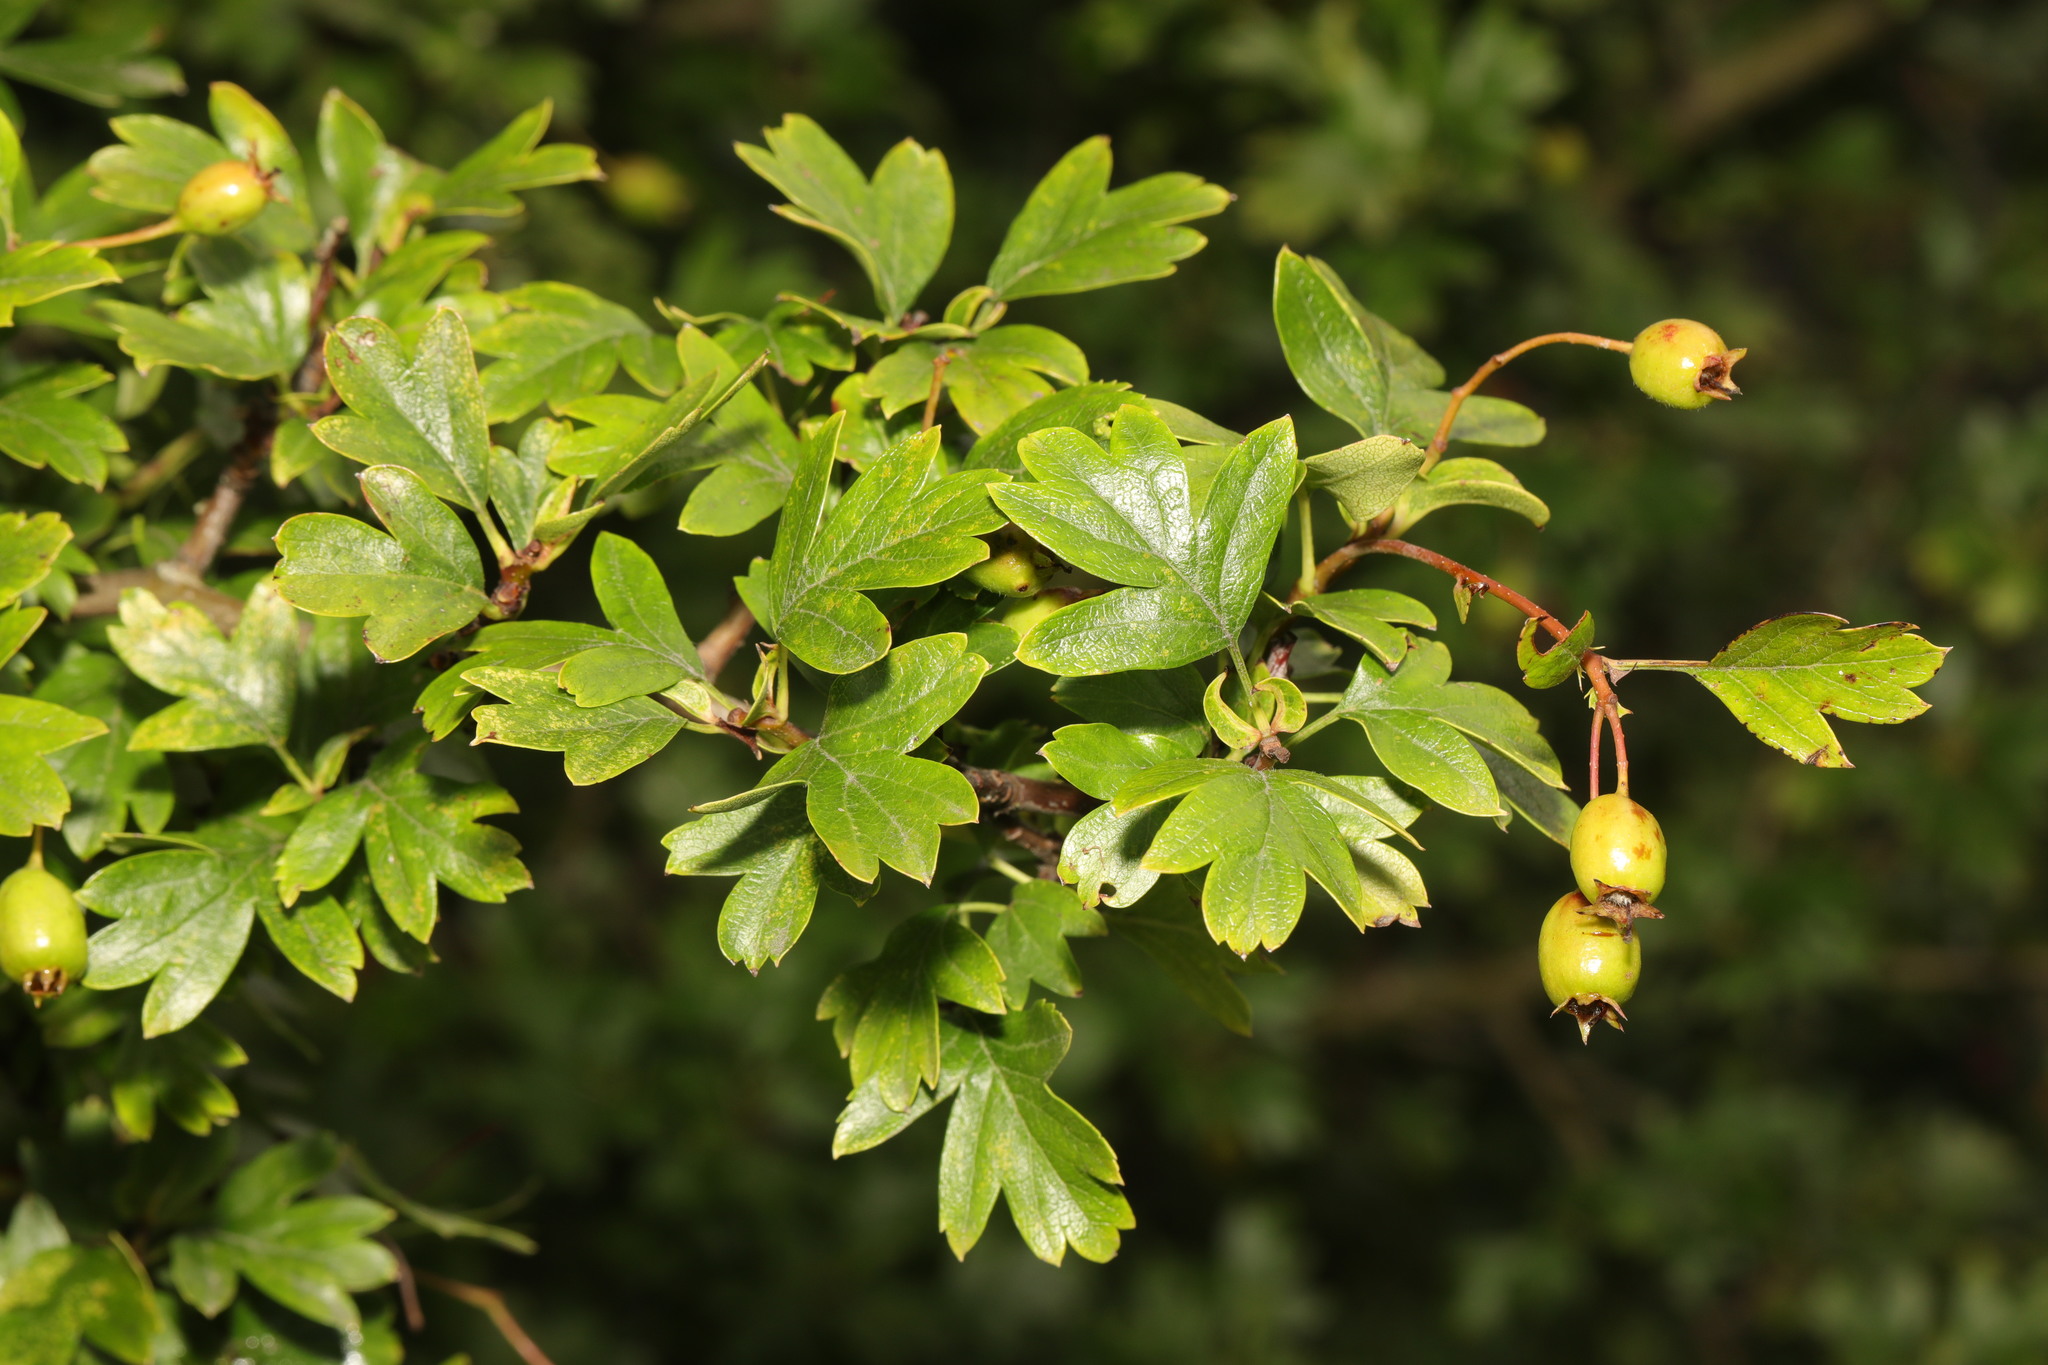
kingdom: Plantae
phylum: Tracheophyta
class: Magnoliopsida
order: Rosales
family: Rosaceae
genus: Crataegus
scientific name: Crataegus monogyna
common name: Hawthorn
